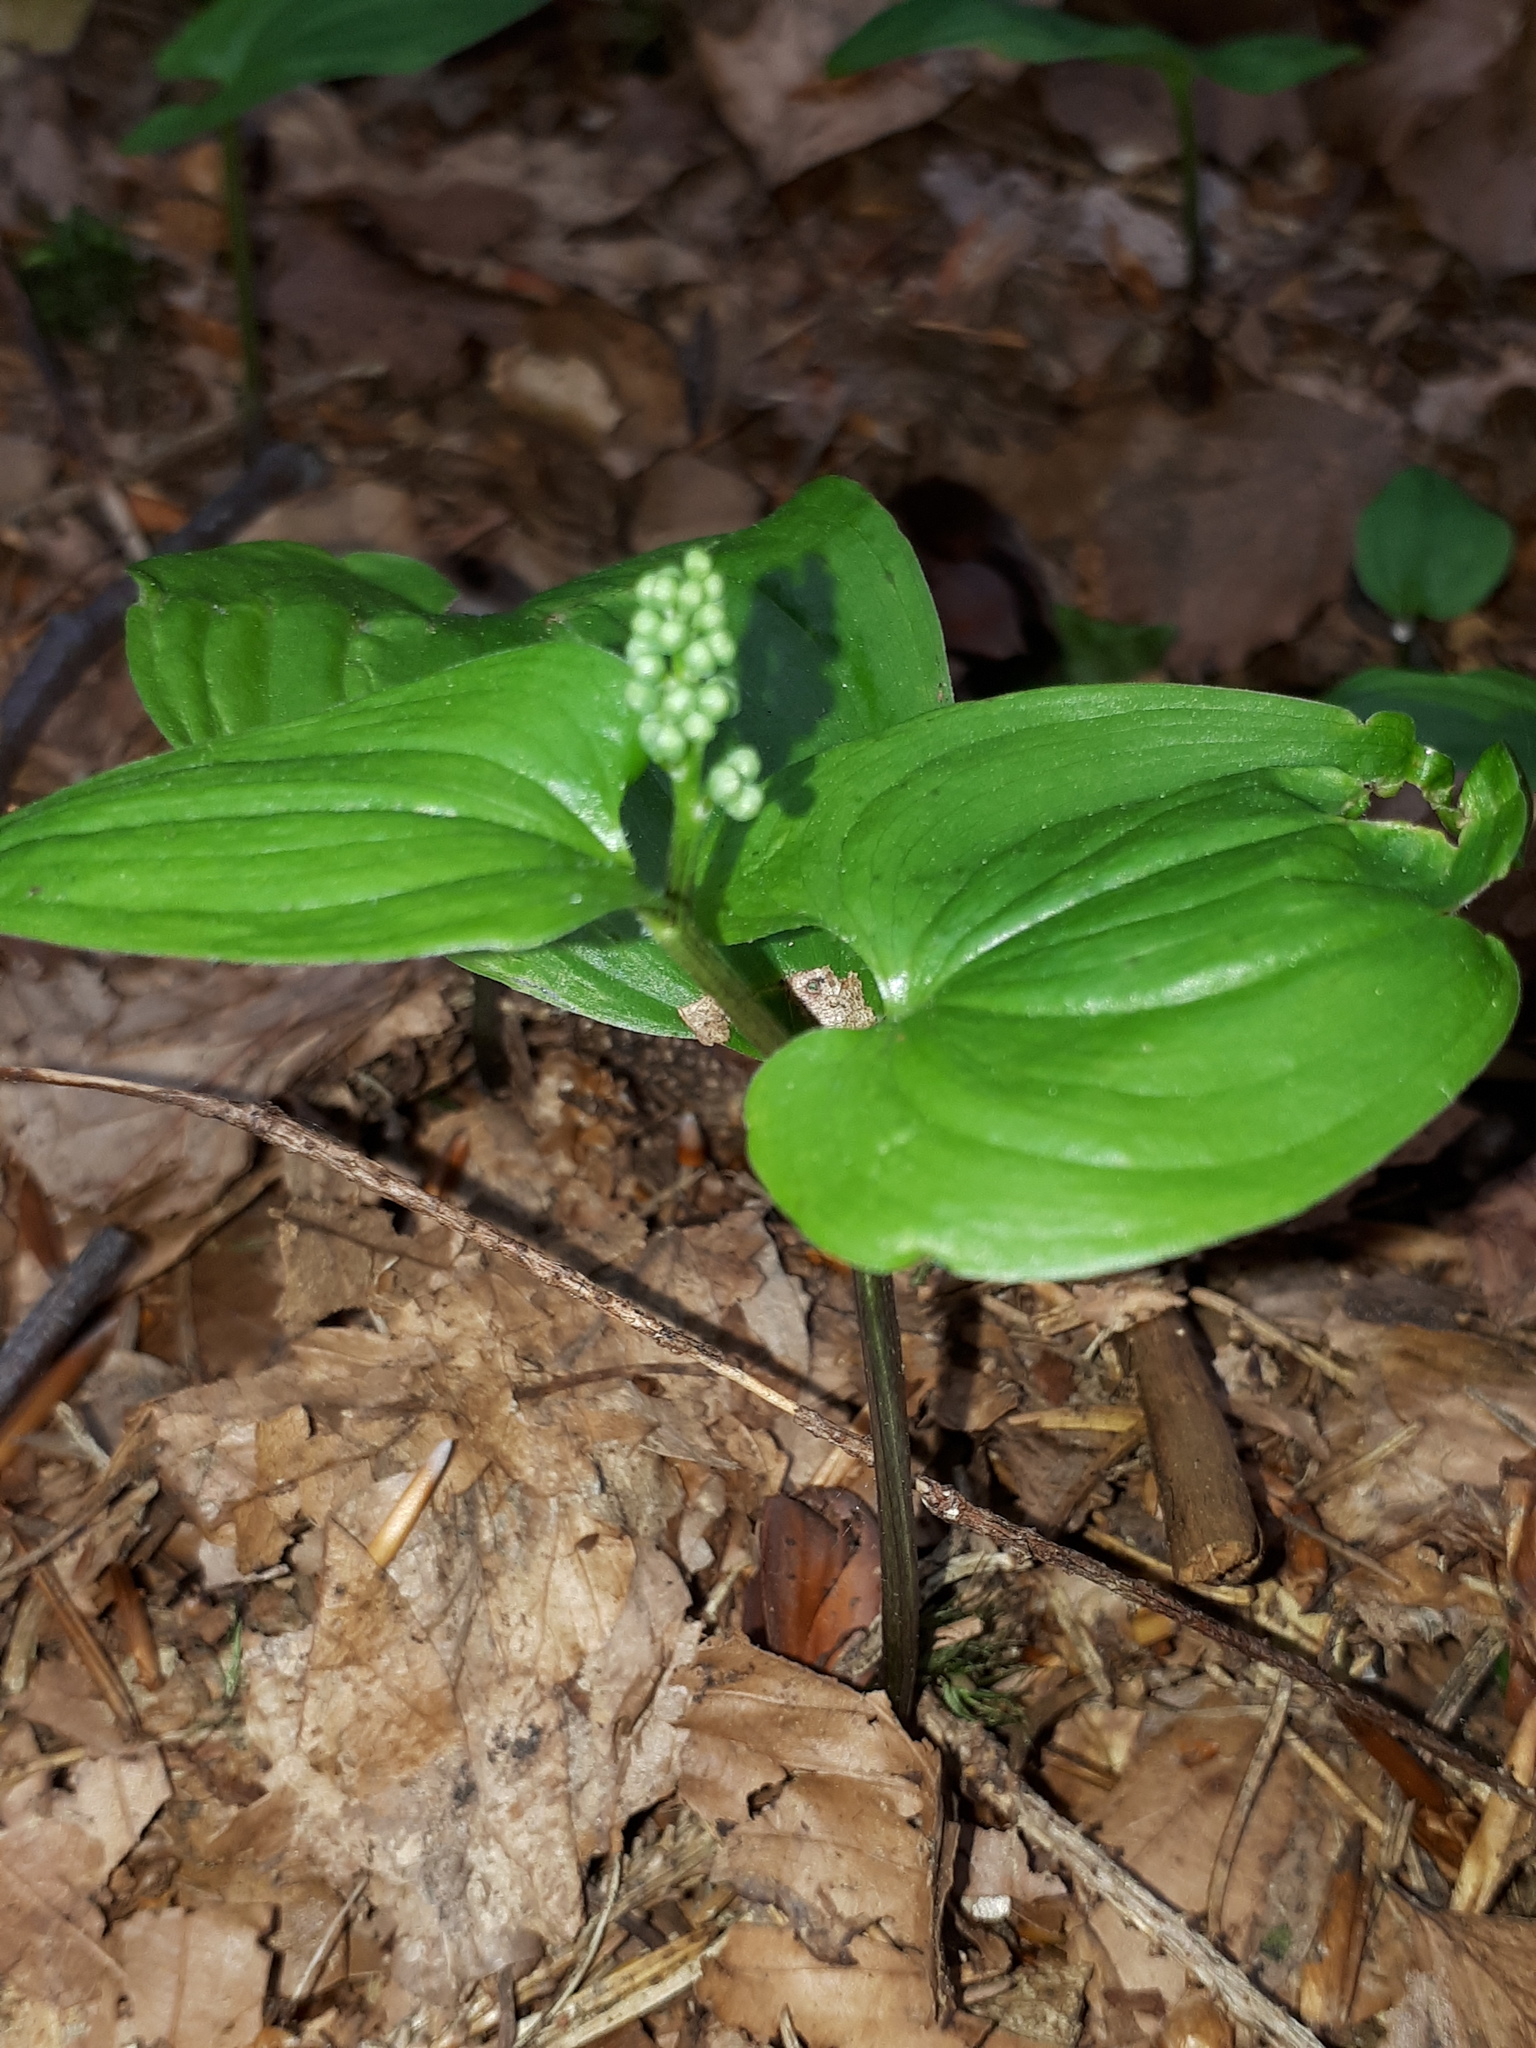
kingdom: Plantae
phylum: Tracheophyta
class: Liliopsida
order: Asparagales
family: Asparagaceae
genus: Maianthemum
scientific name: Maianthemum bifolium
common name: May lily
